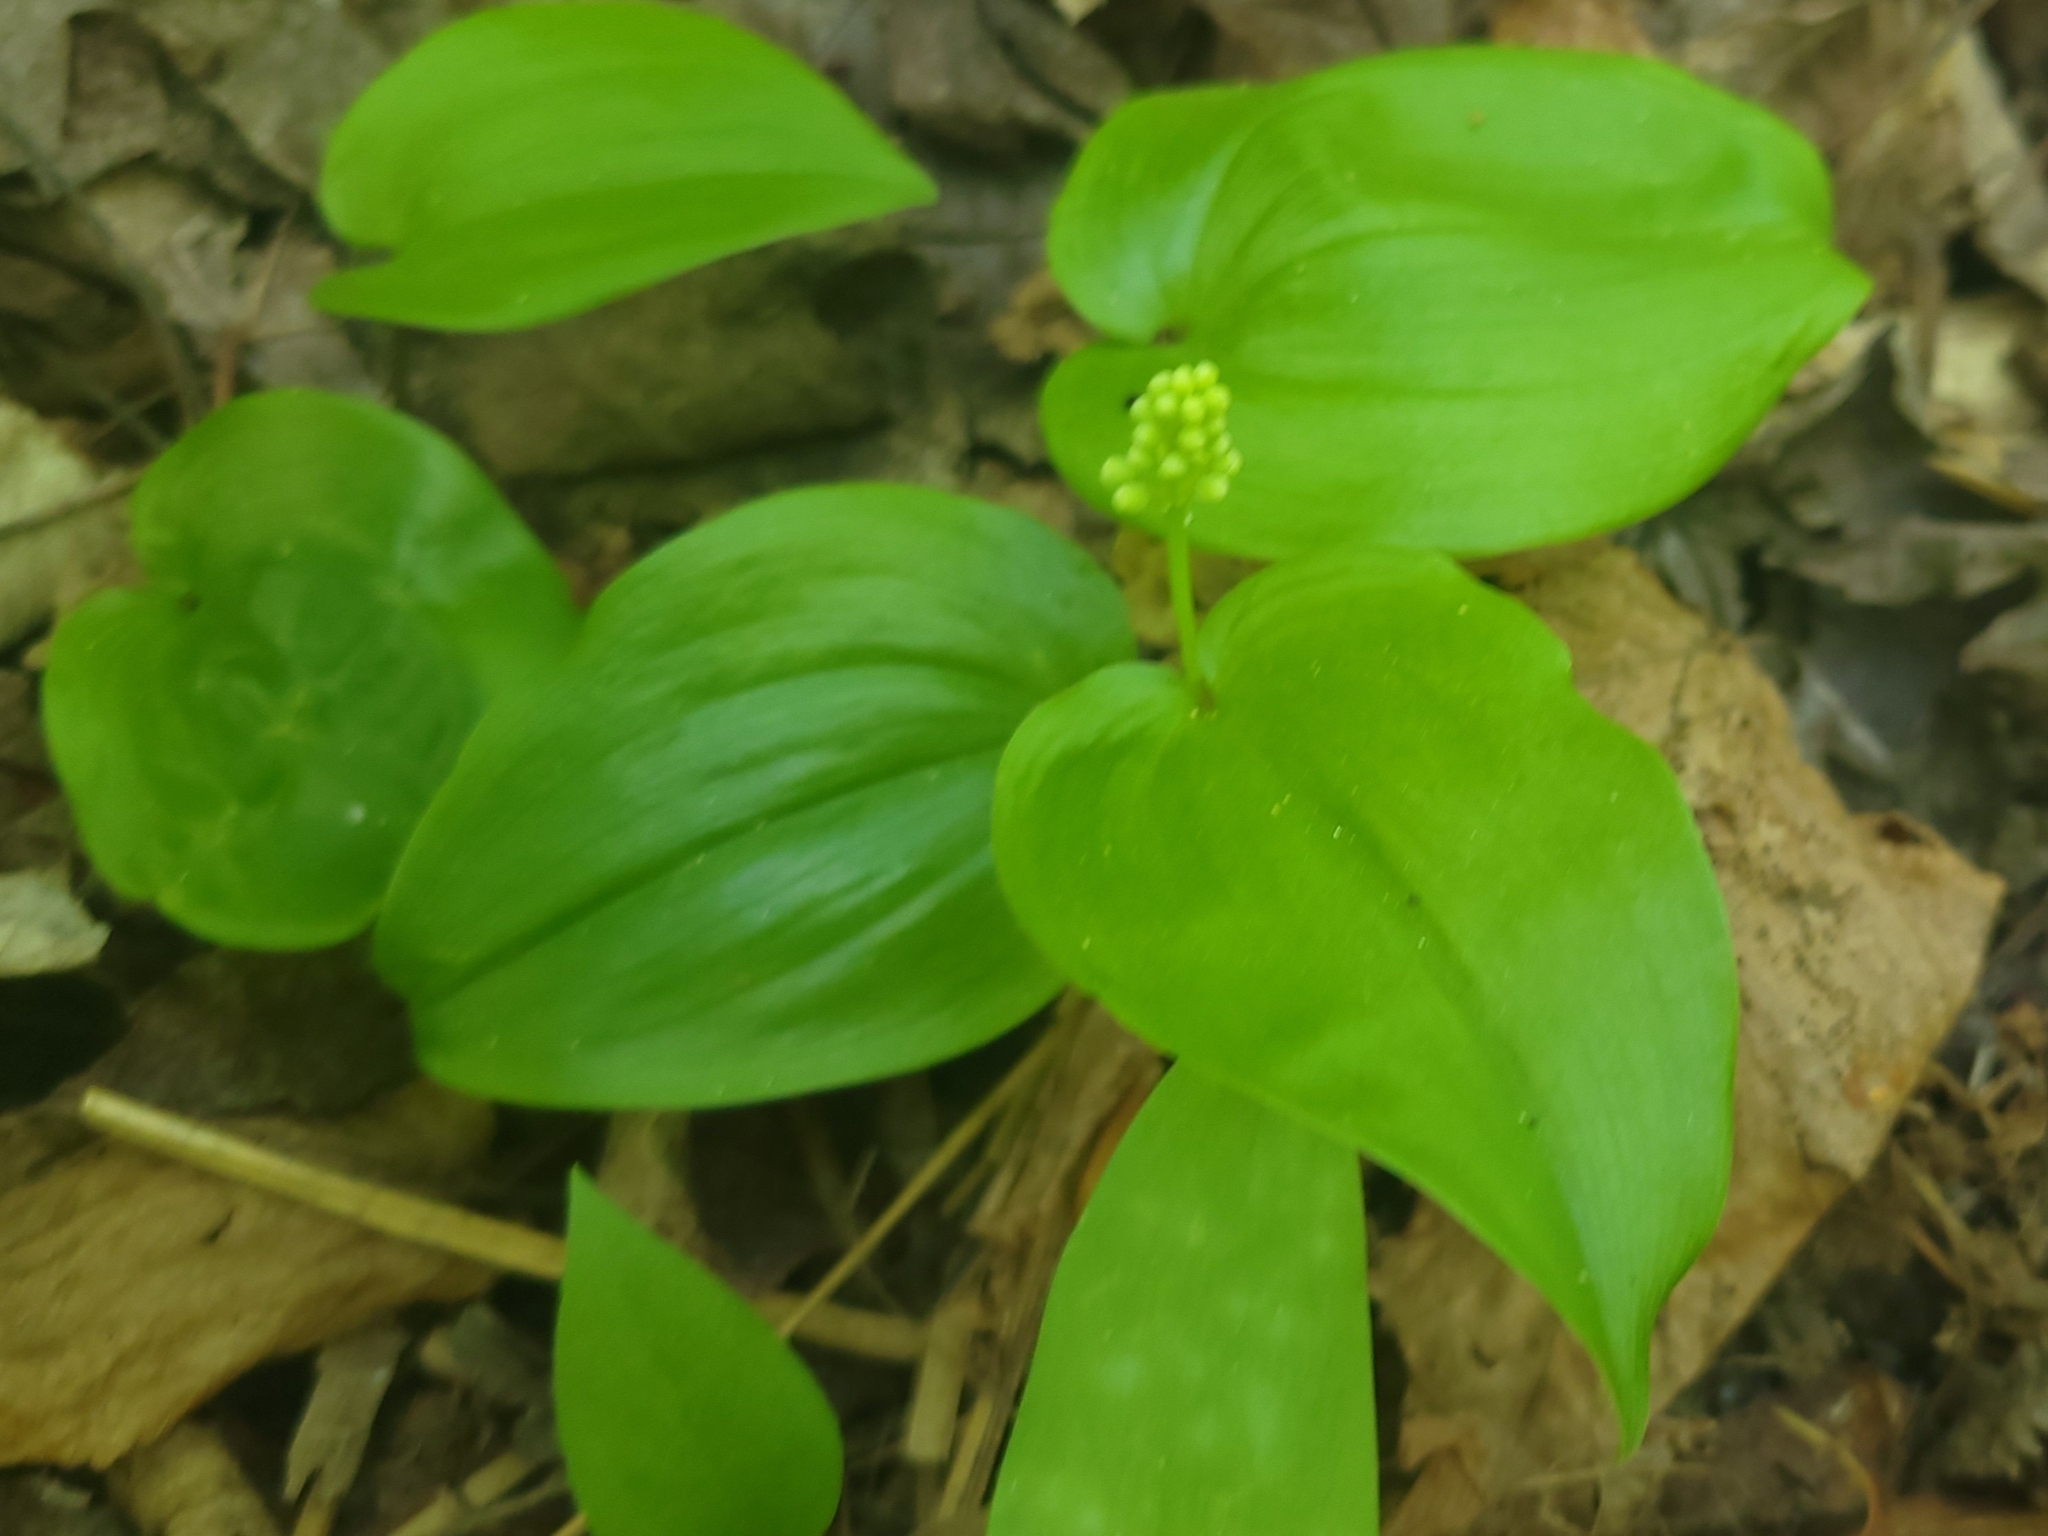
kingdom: Plantae
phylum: Tracheophyta
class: Liliopsida
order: Asparagales
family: Asparagaceae
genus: Maianthemum
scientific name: Maianthemum canadense
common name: False lily-of-the-valley
